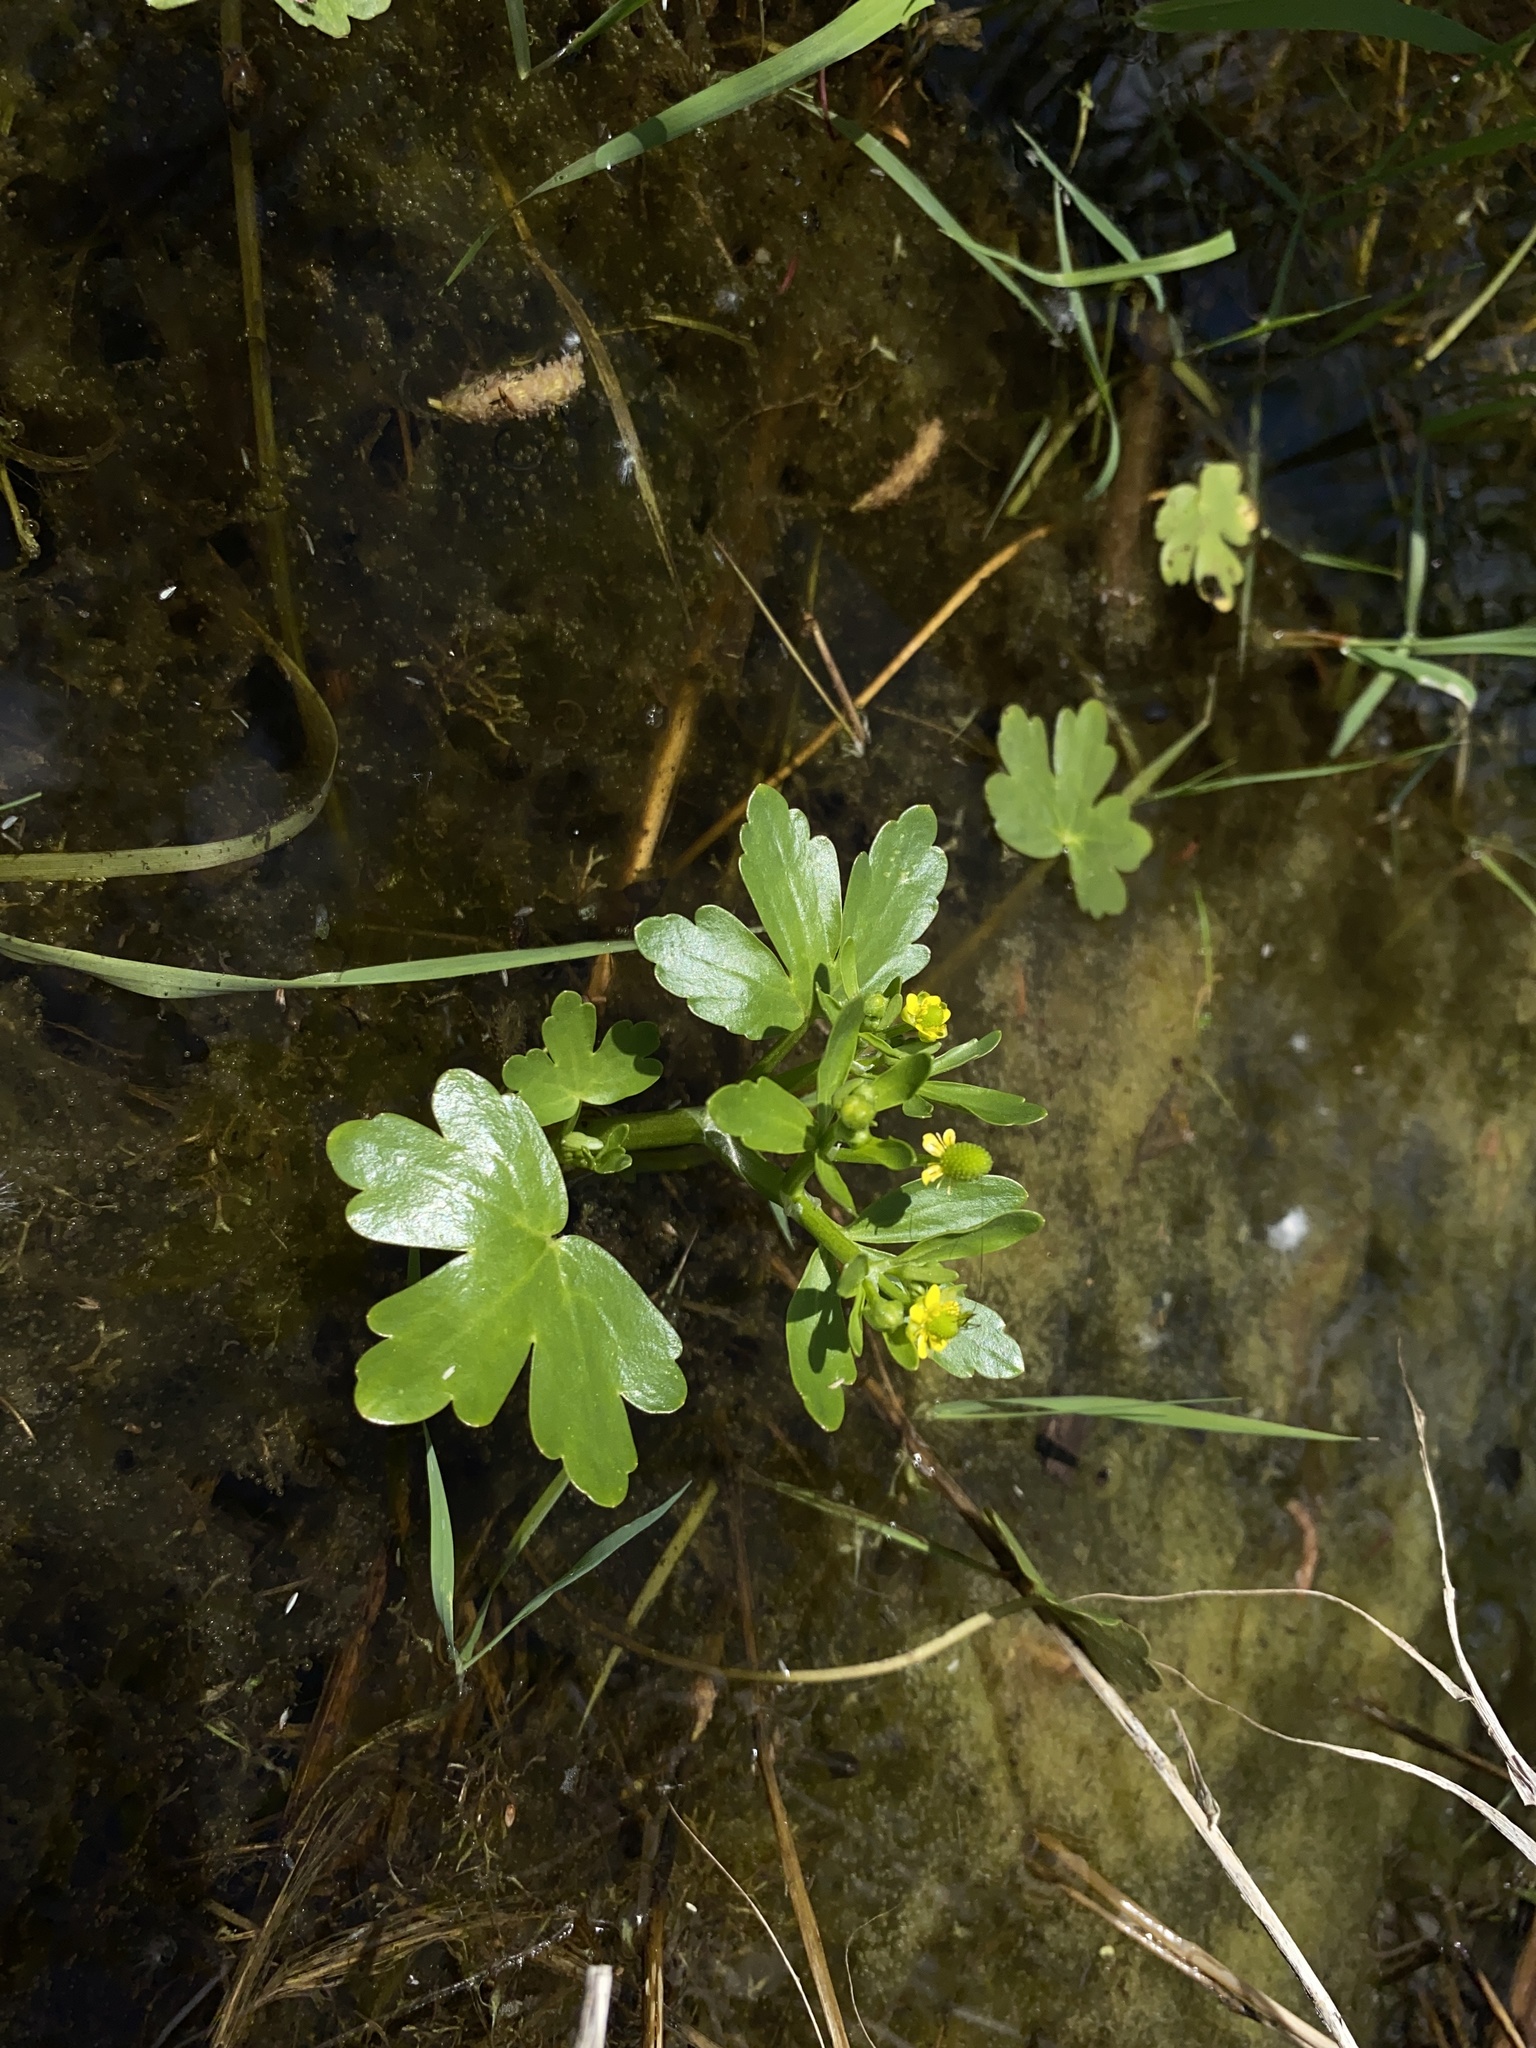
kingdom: Plantae
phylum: Tracheophyta
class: Magnoliopsida
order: Ranunculales
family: Ranunculaceae
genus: Ranunculus
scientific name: Ranunculus sceleratus
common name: Celery-leaved buttercup
